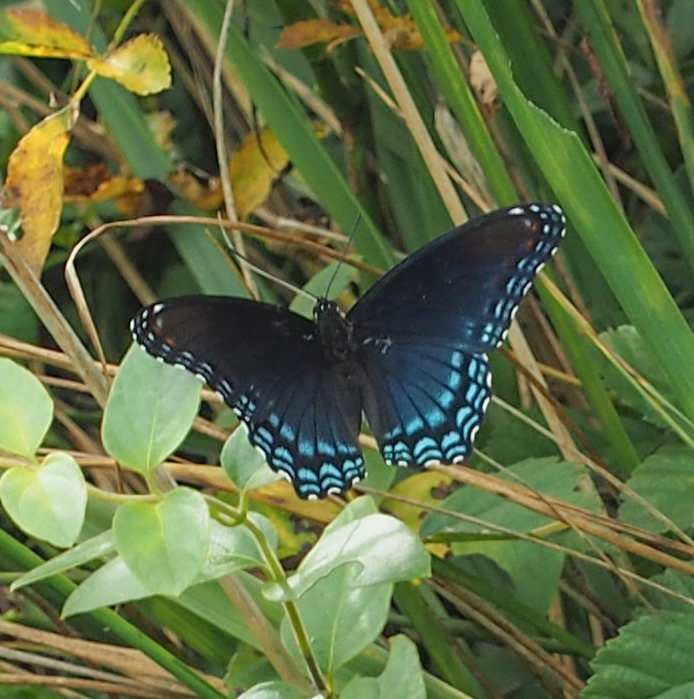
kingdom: Animalia
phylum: Arthropoda
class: Insecta
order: Lepidoptera
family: Nymphalidae
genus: Limenitis
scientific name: Limenitis astyanax
